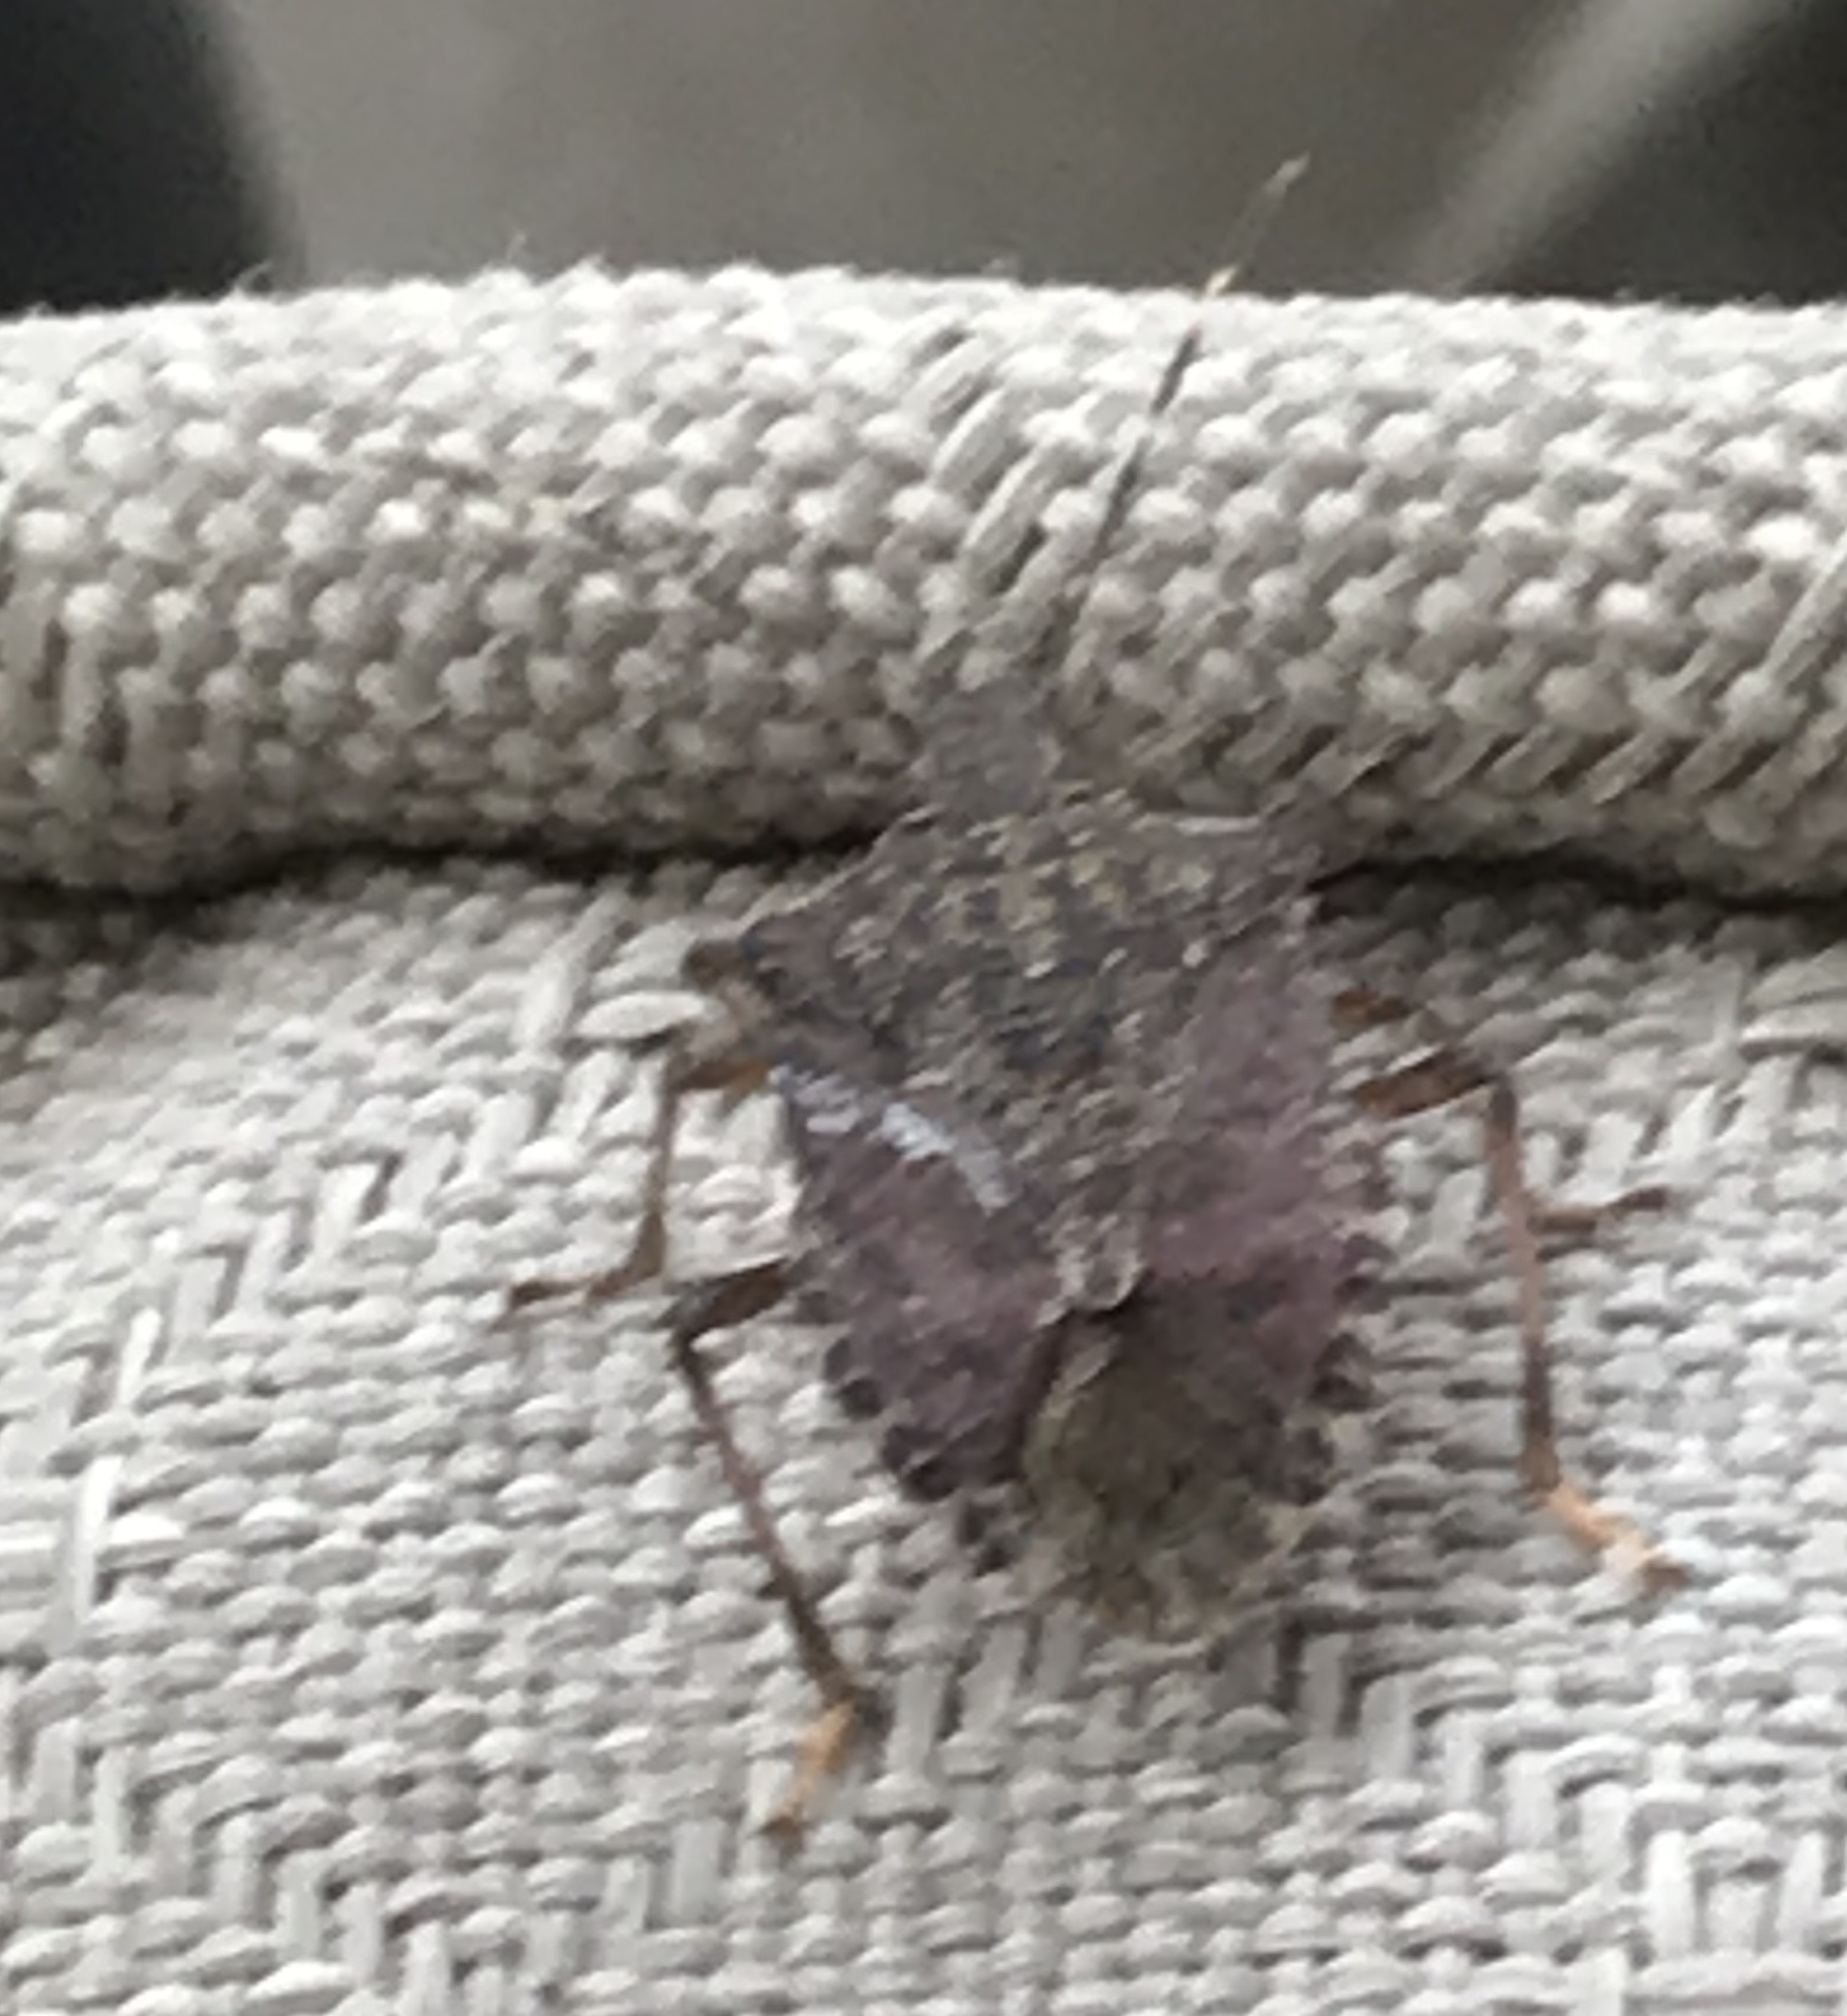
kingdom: Animalia
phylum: Arthropoda
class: Insecta
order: Hemiptera
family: Pentatomidae
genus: Halyomorpha
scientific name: Halyomorpha halys
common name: Brown marmorated stink bug
